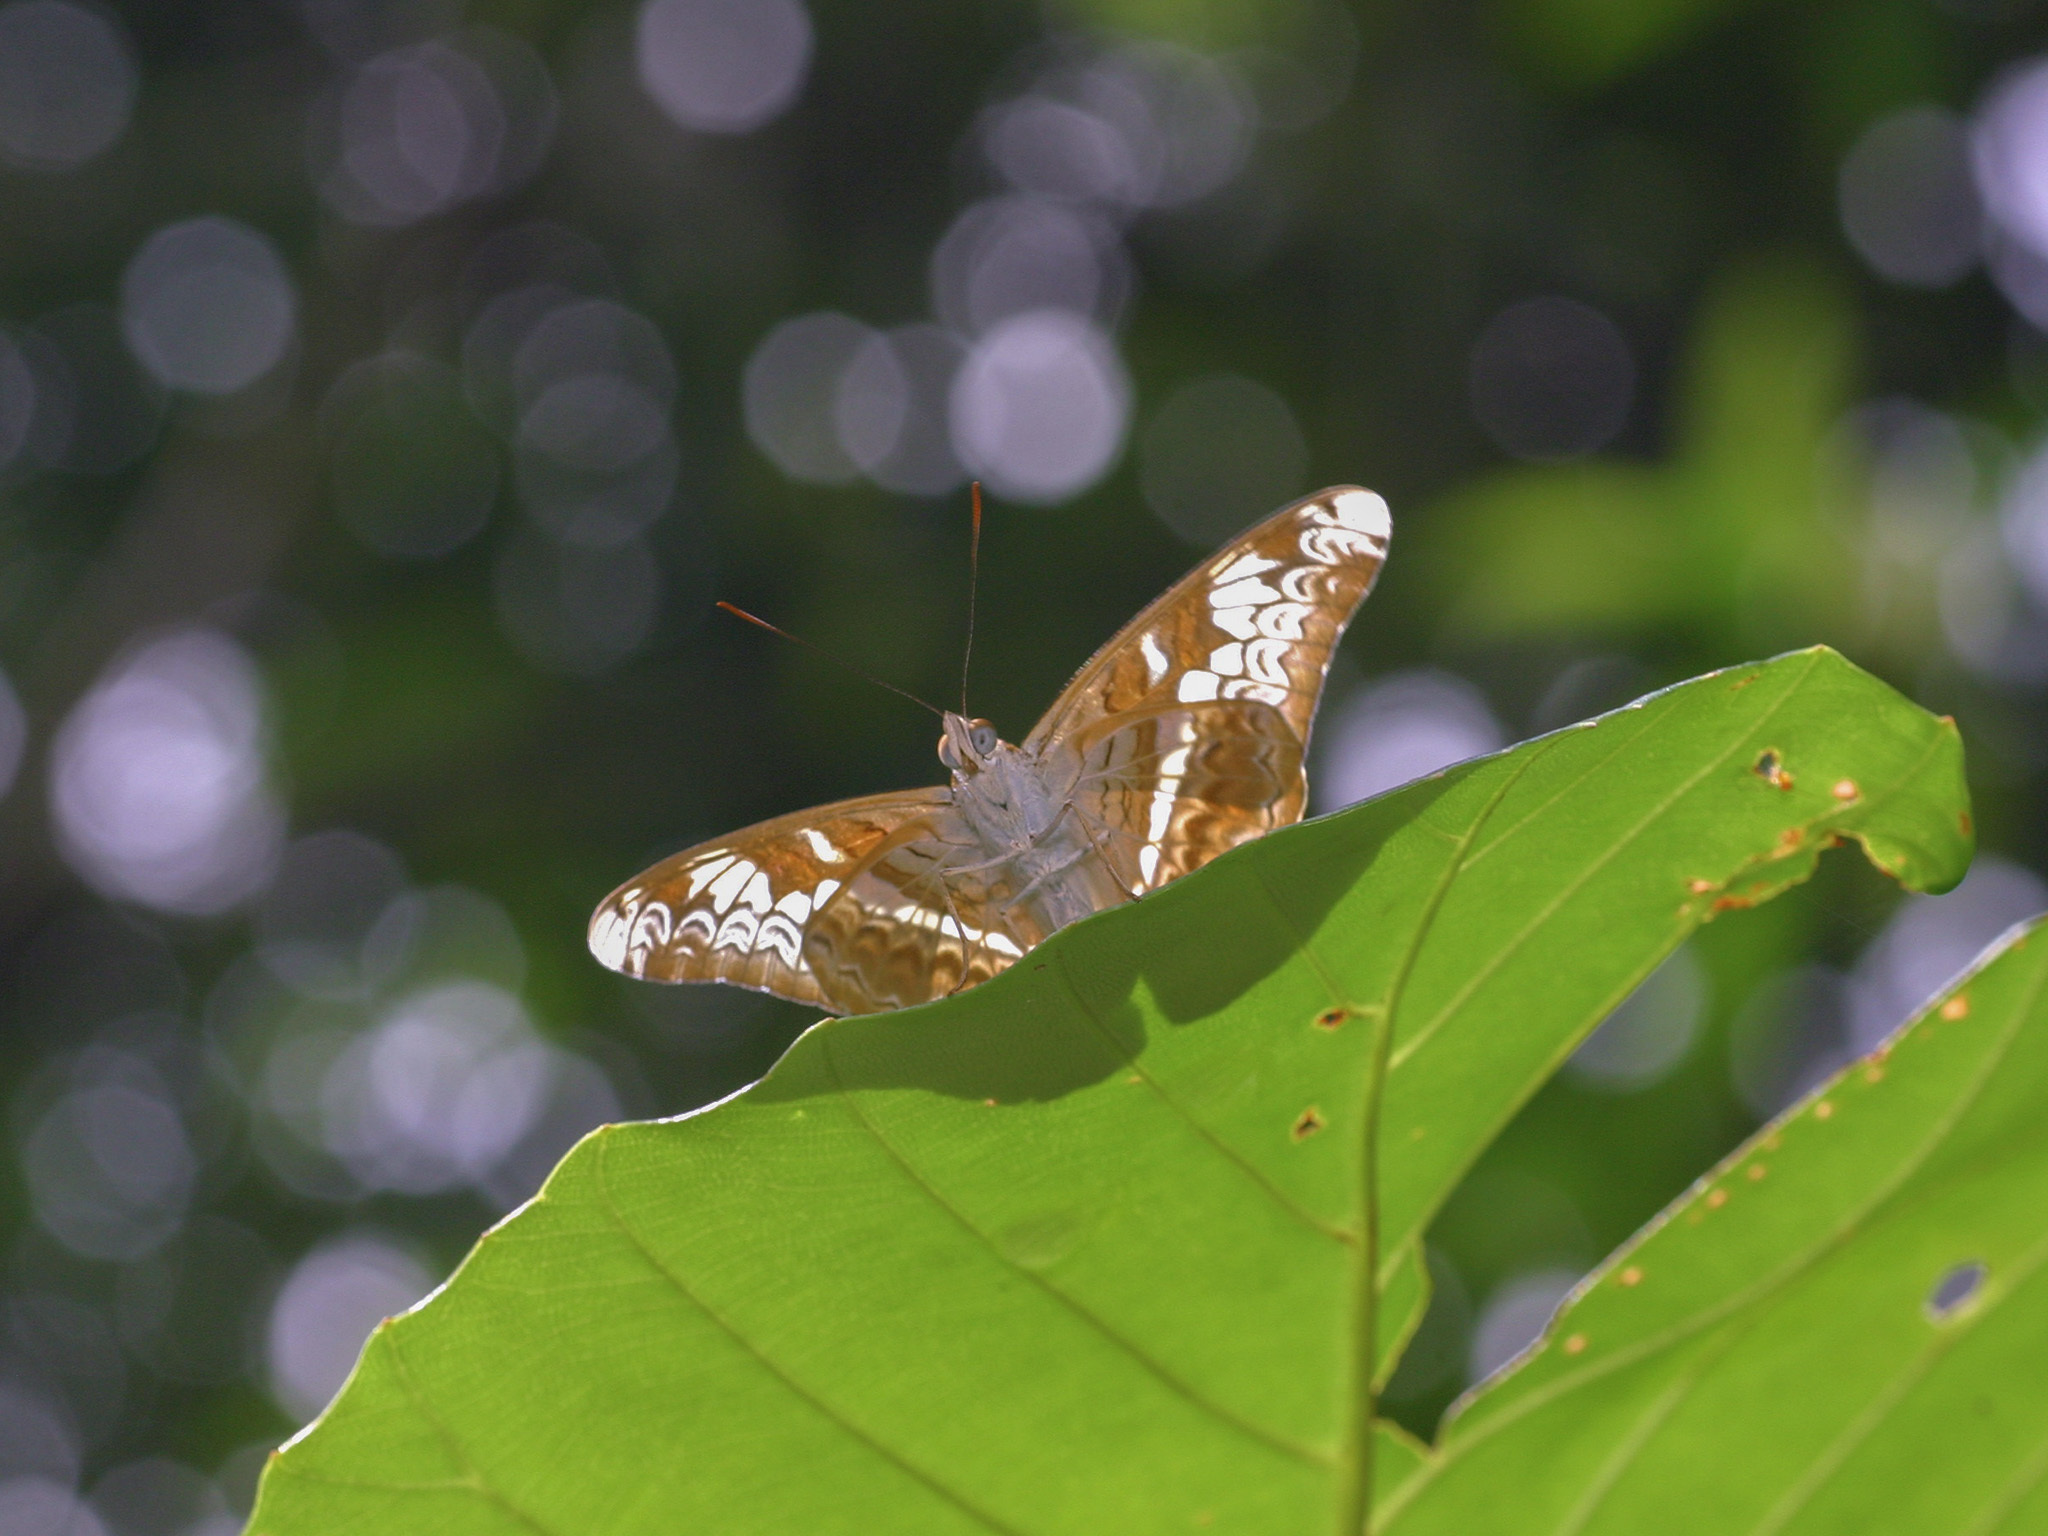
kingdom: Animalia
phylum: Arthropoda
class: Insecta
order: Lepidoptera
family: Nymphalidae
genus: Lebadea
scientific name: Lebadea martha
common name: Knight
